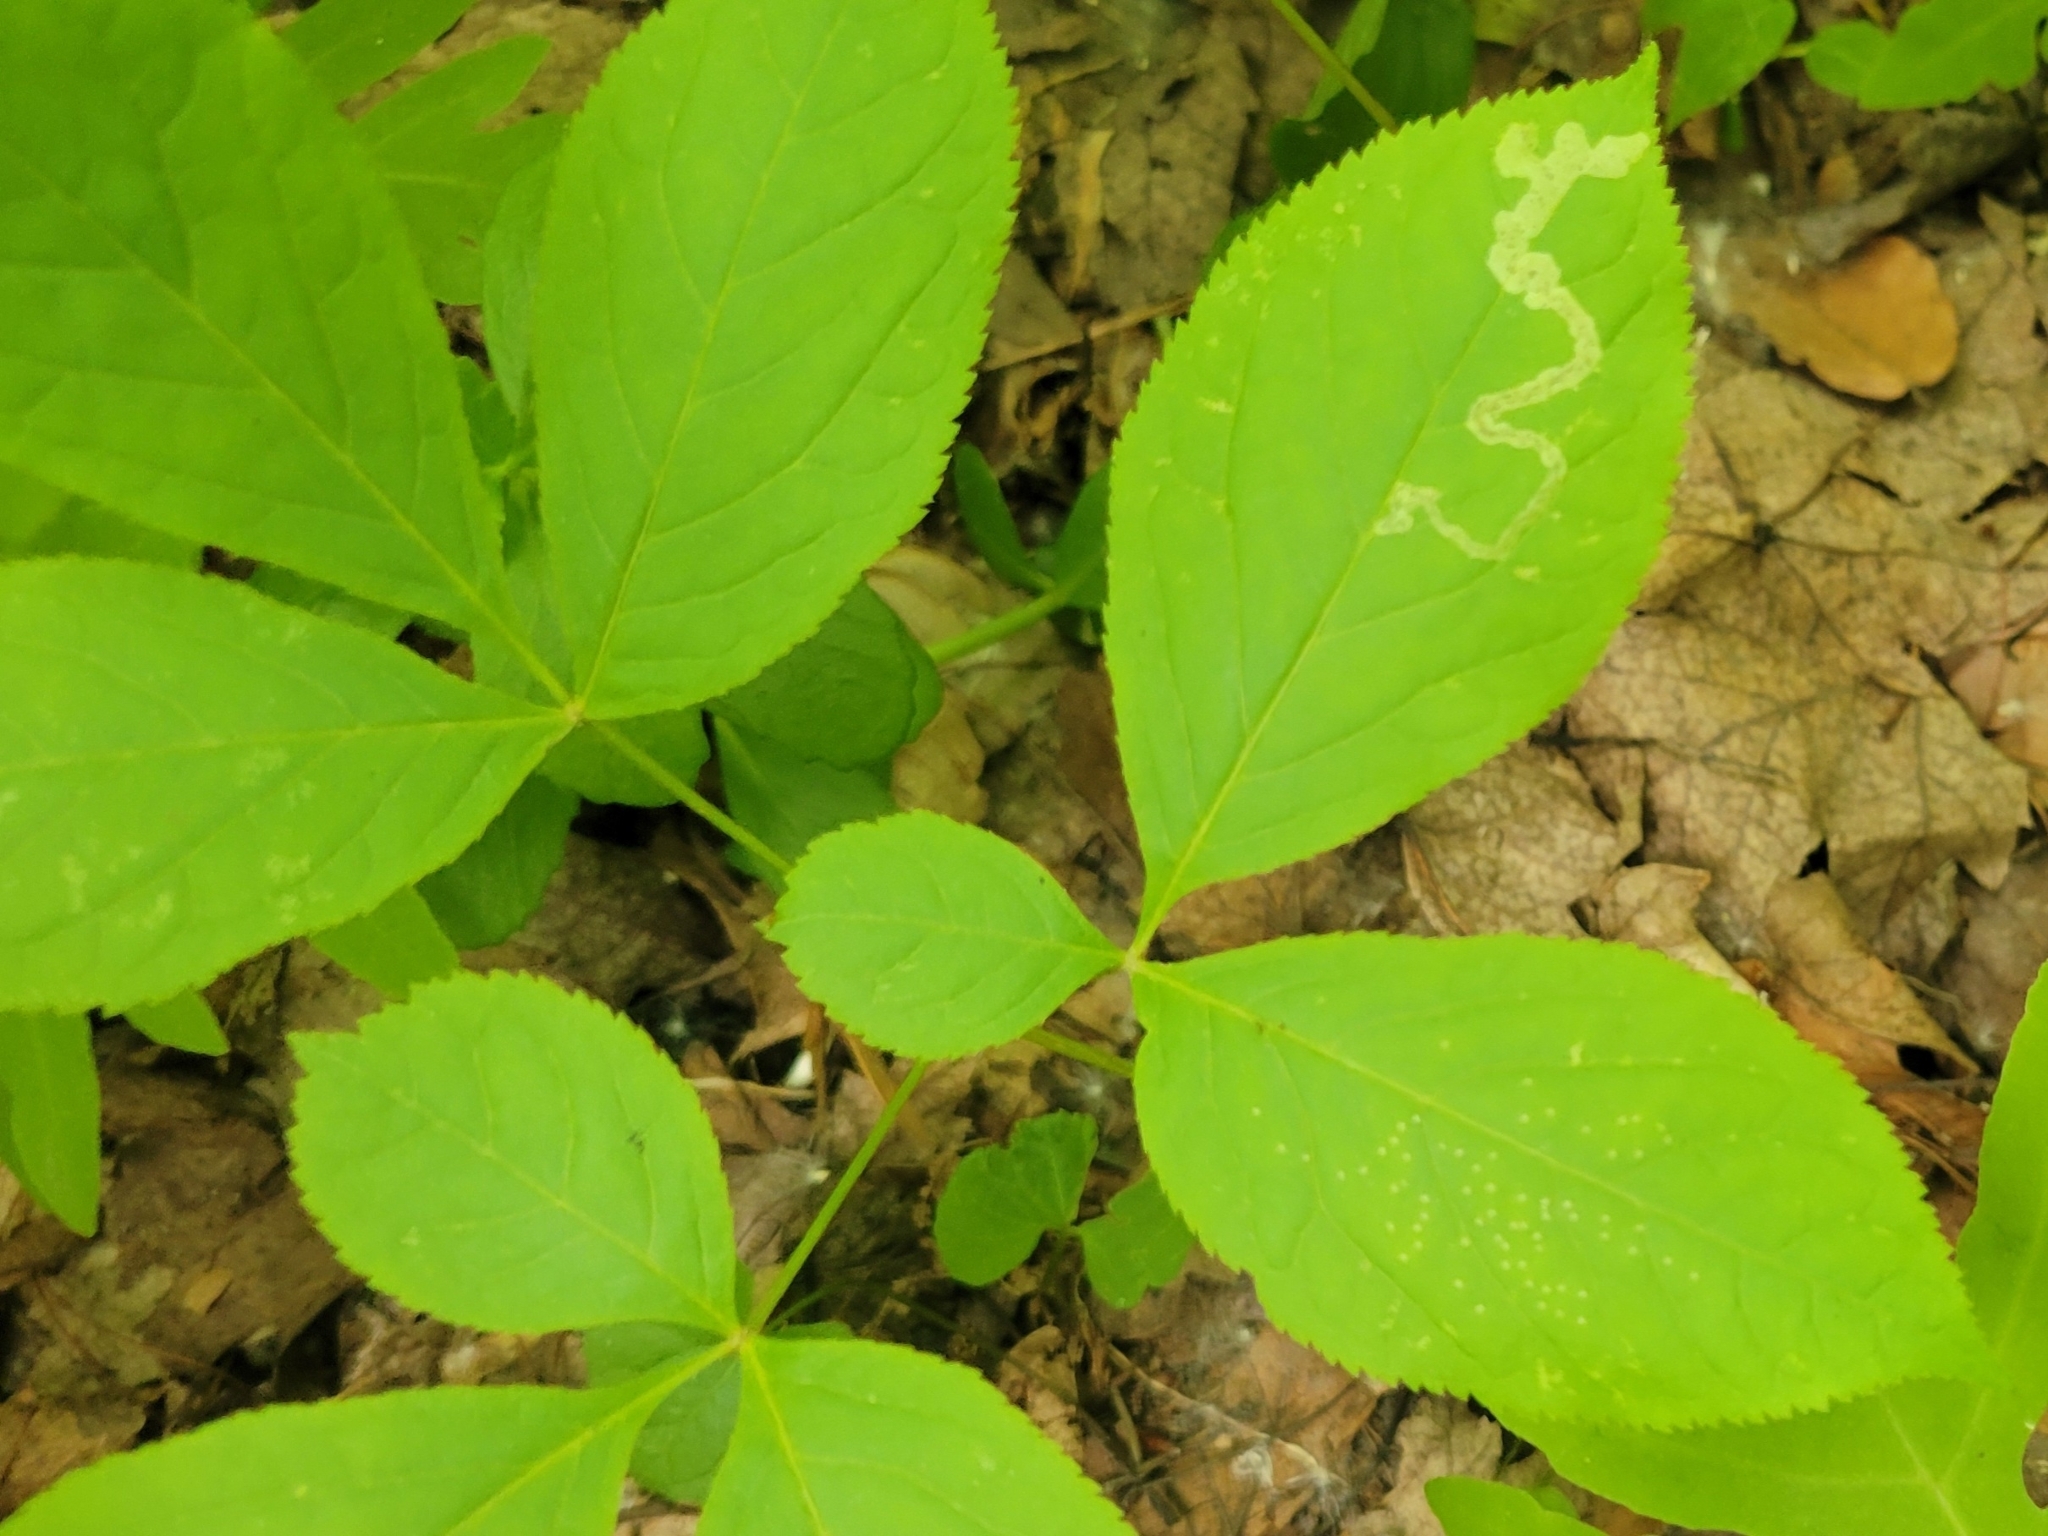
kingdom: Plantae
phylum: Tracheophyta
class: Magnoliopsida
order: Apiales
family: Araliaceae
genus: Aralia
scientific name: Aralia nudicaulis
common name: Wild sarsaparilla
